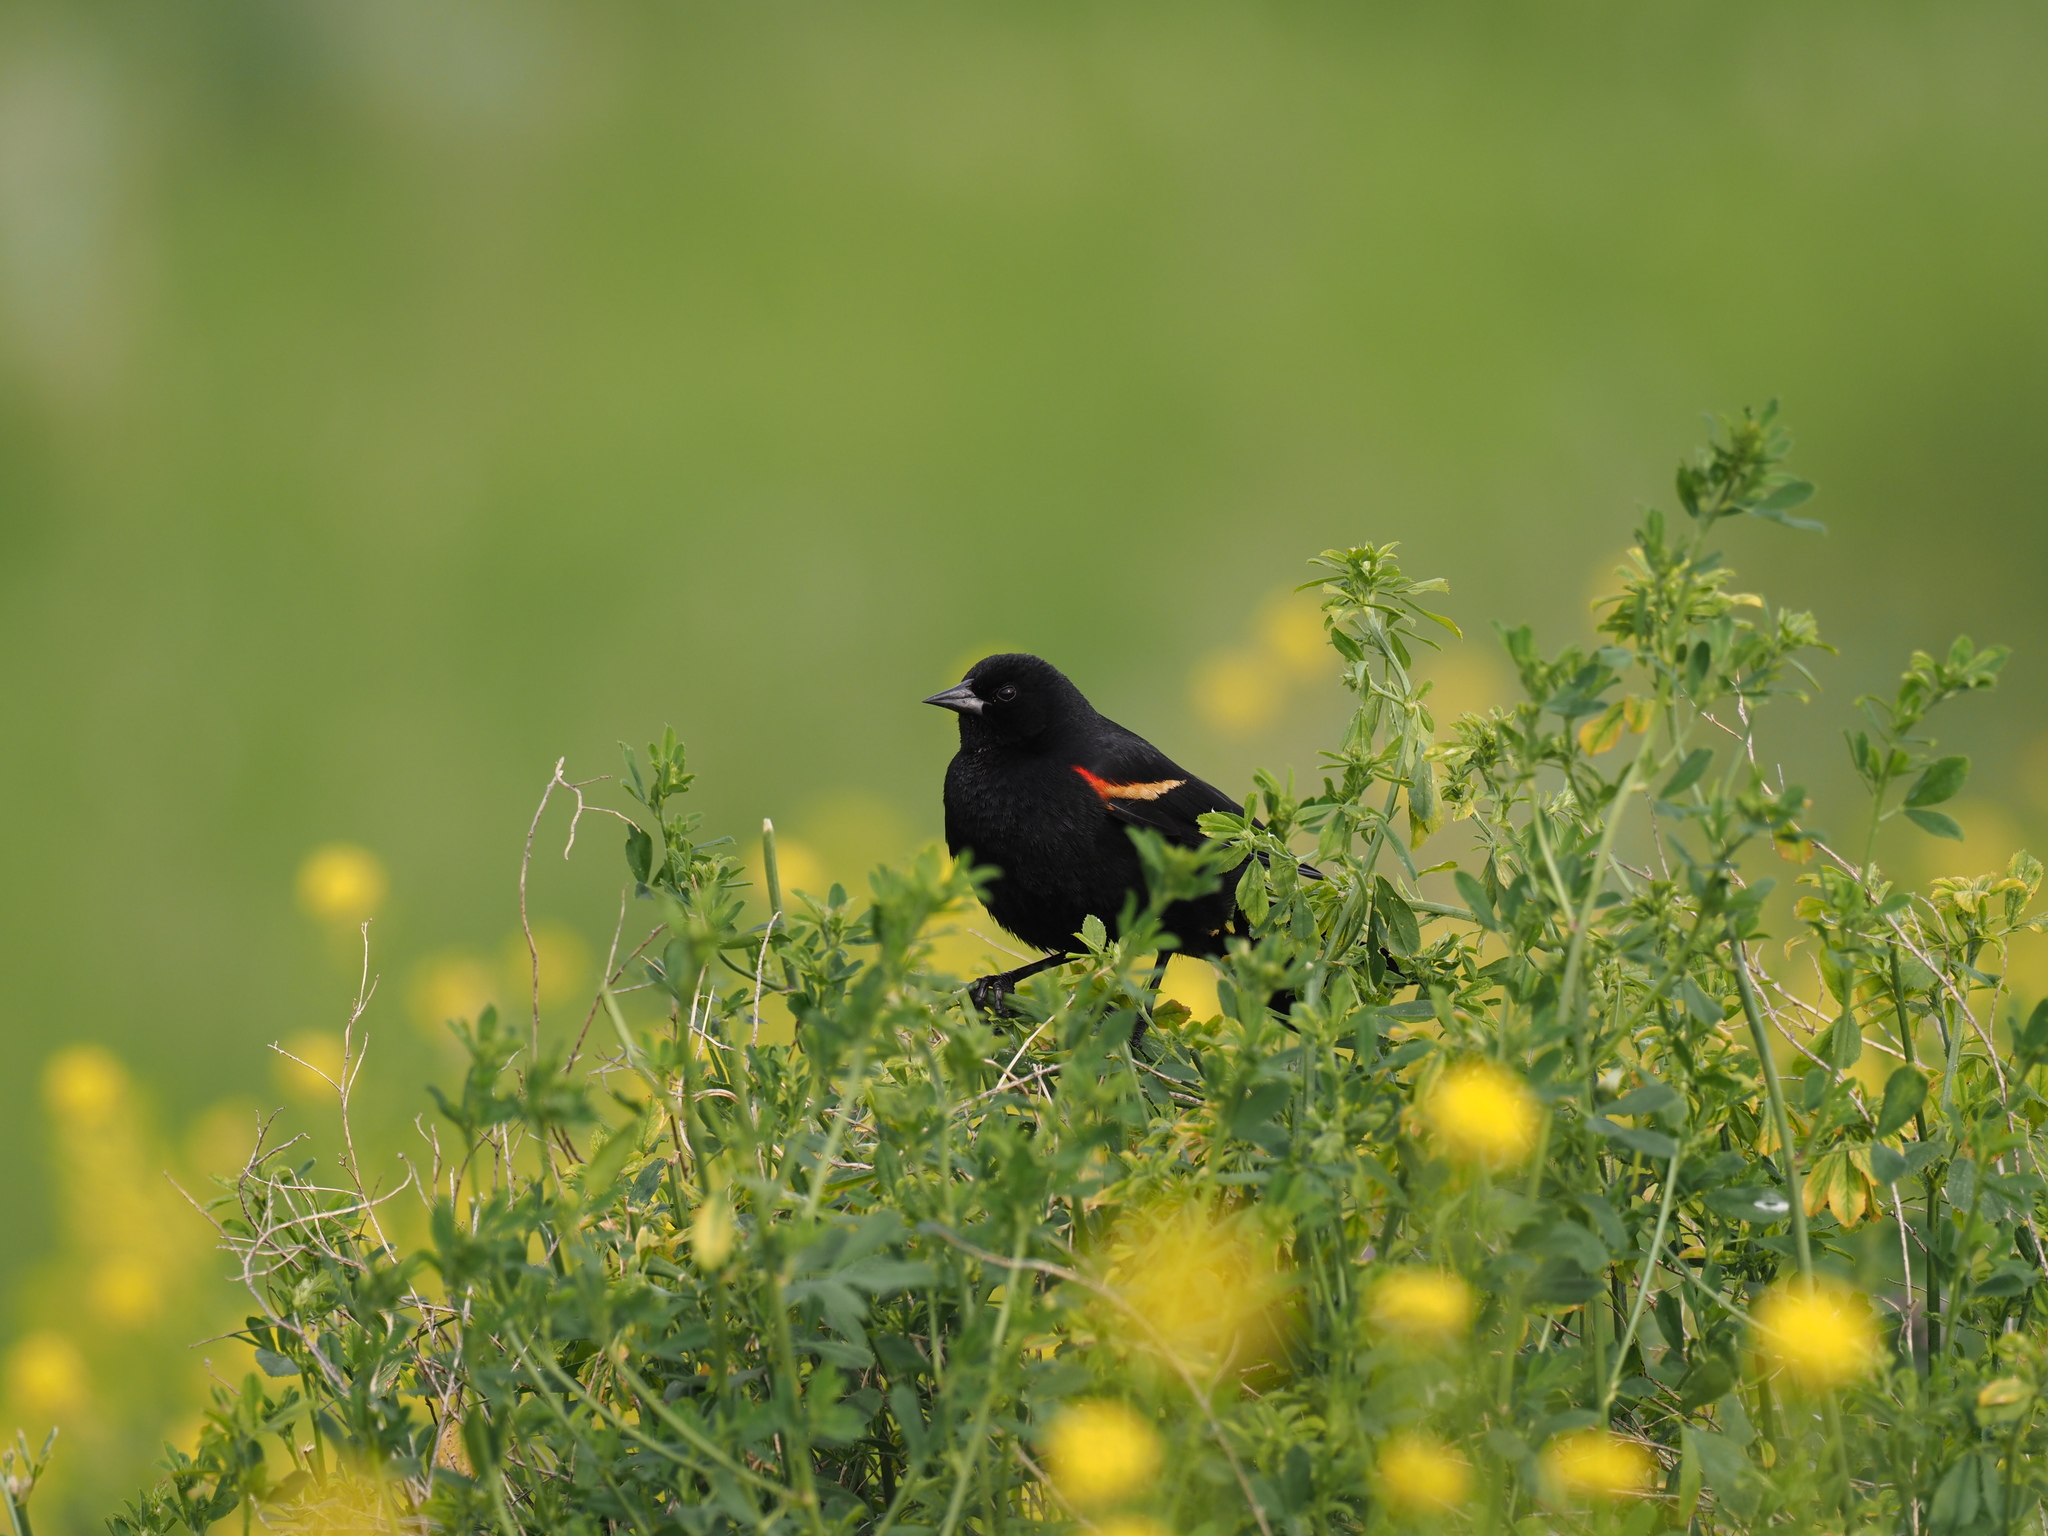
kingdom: Animalia
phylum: Chordata
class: Aves
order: Passeriformes
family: Icteridae
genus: Agelaius
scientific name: Agelaius phoeniceus
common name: Red-winged blackbird
